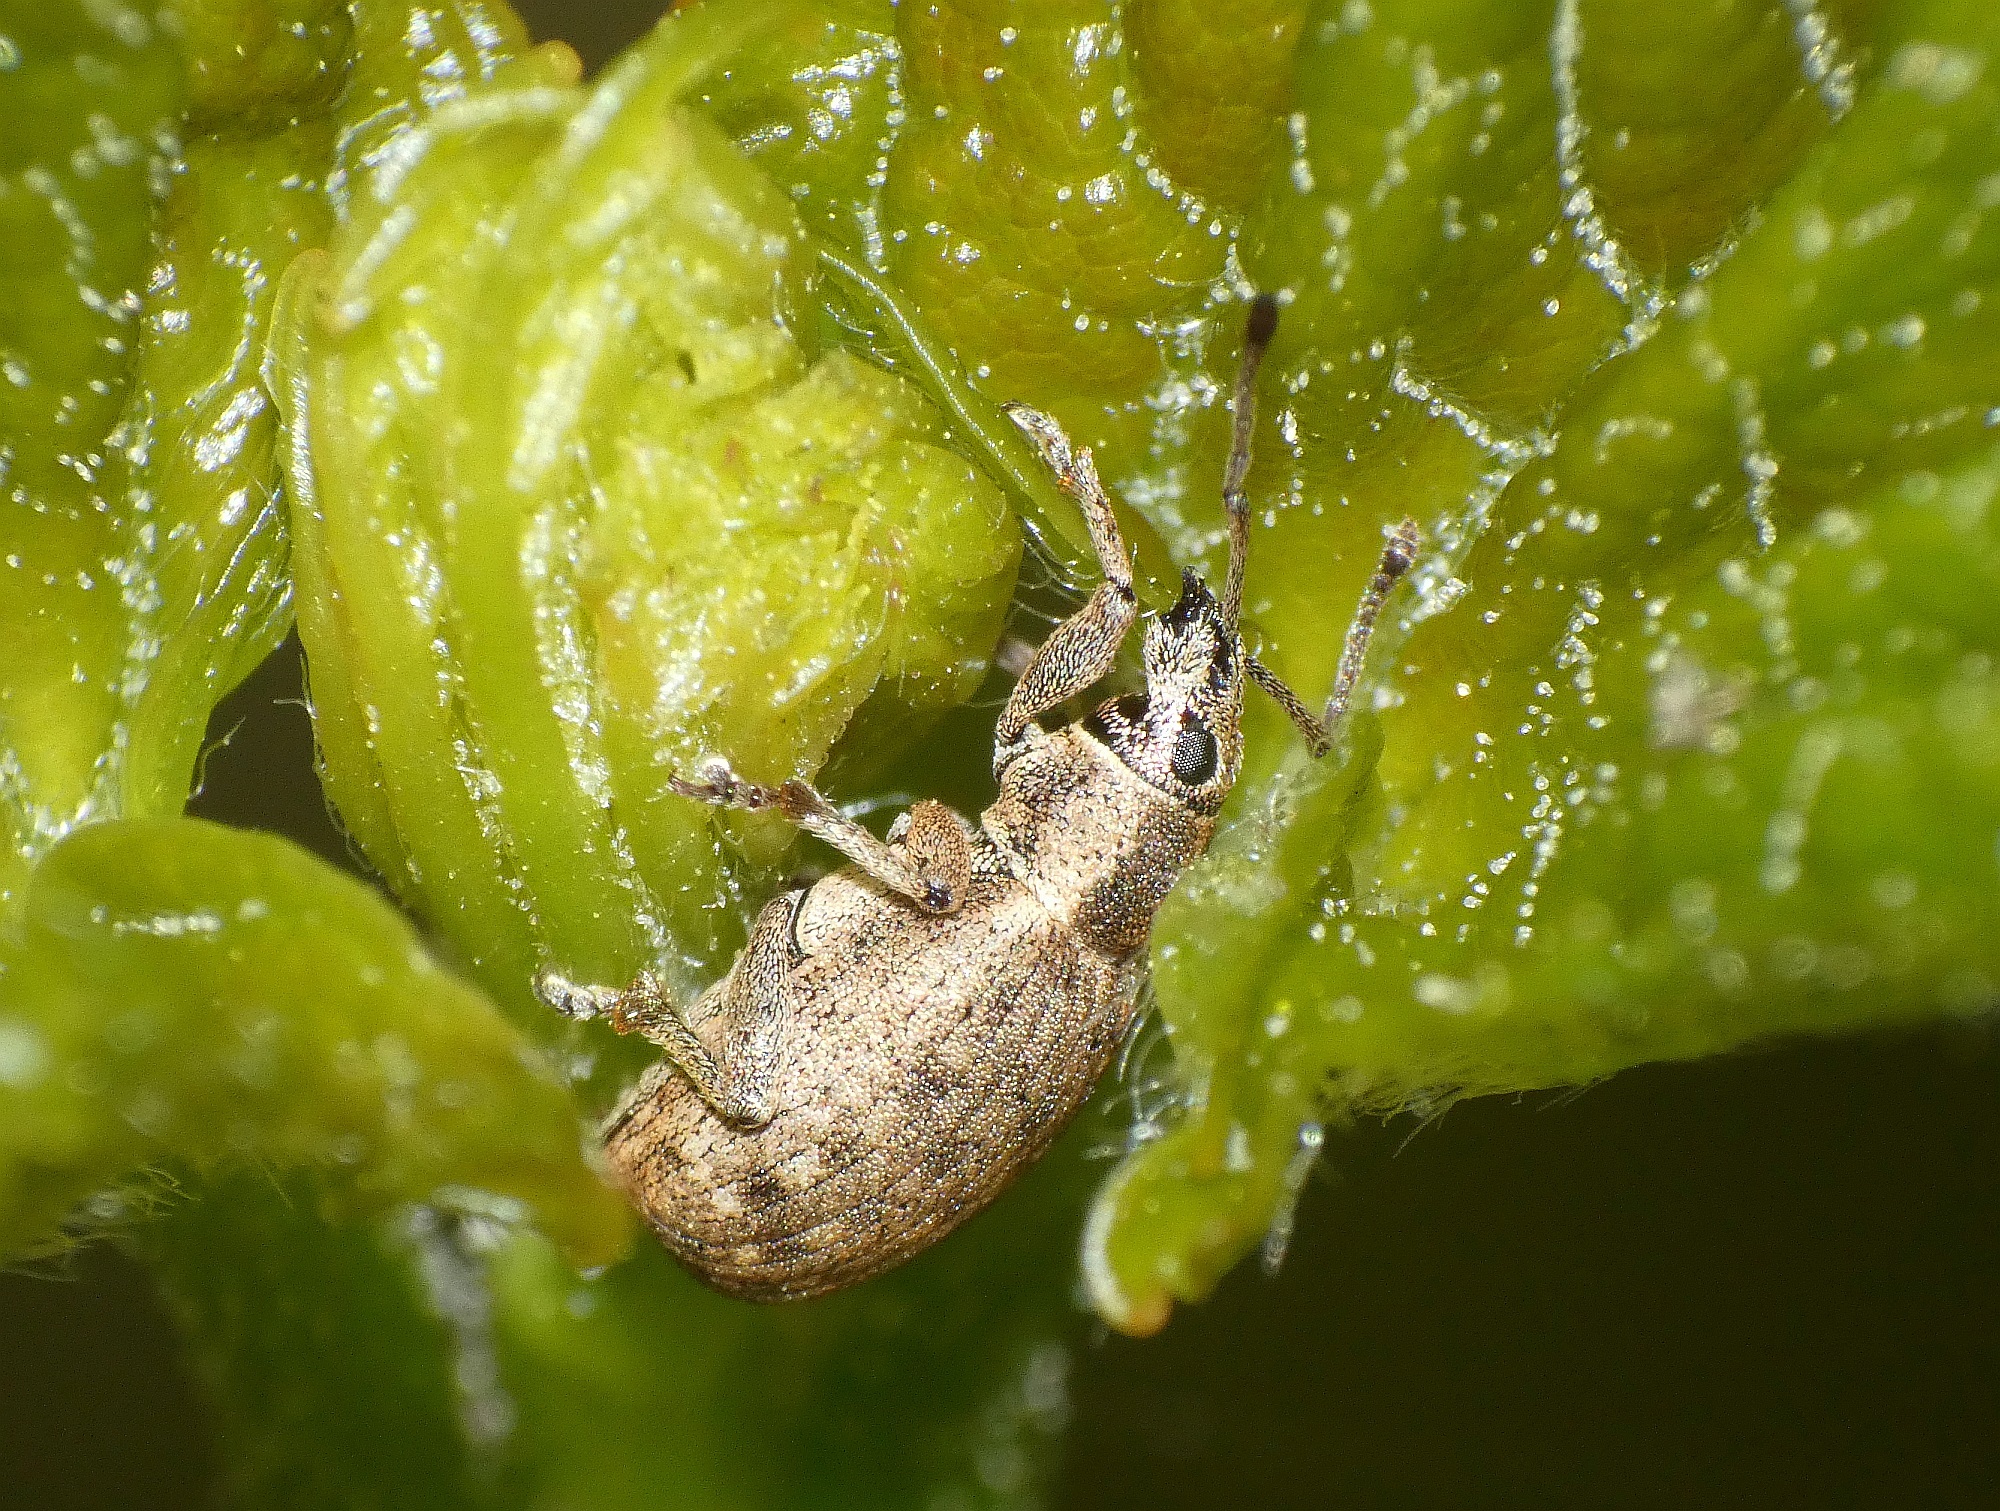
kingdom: Animalia
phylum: Arthropoda
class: Insecta
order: Coleoptera
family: Curculionidae
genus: Peritelus
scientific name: Peritelus sphaeroides
